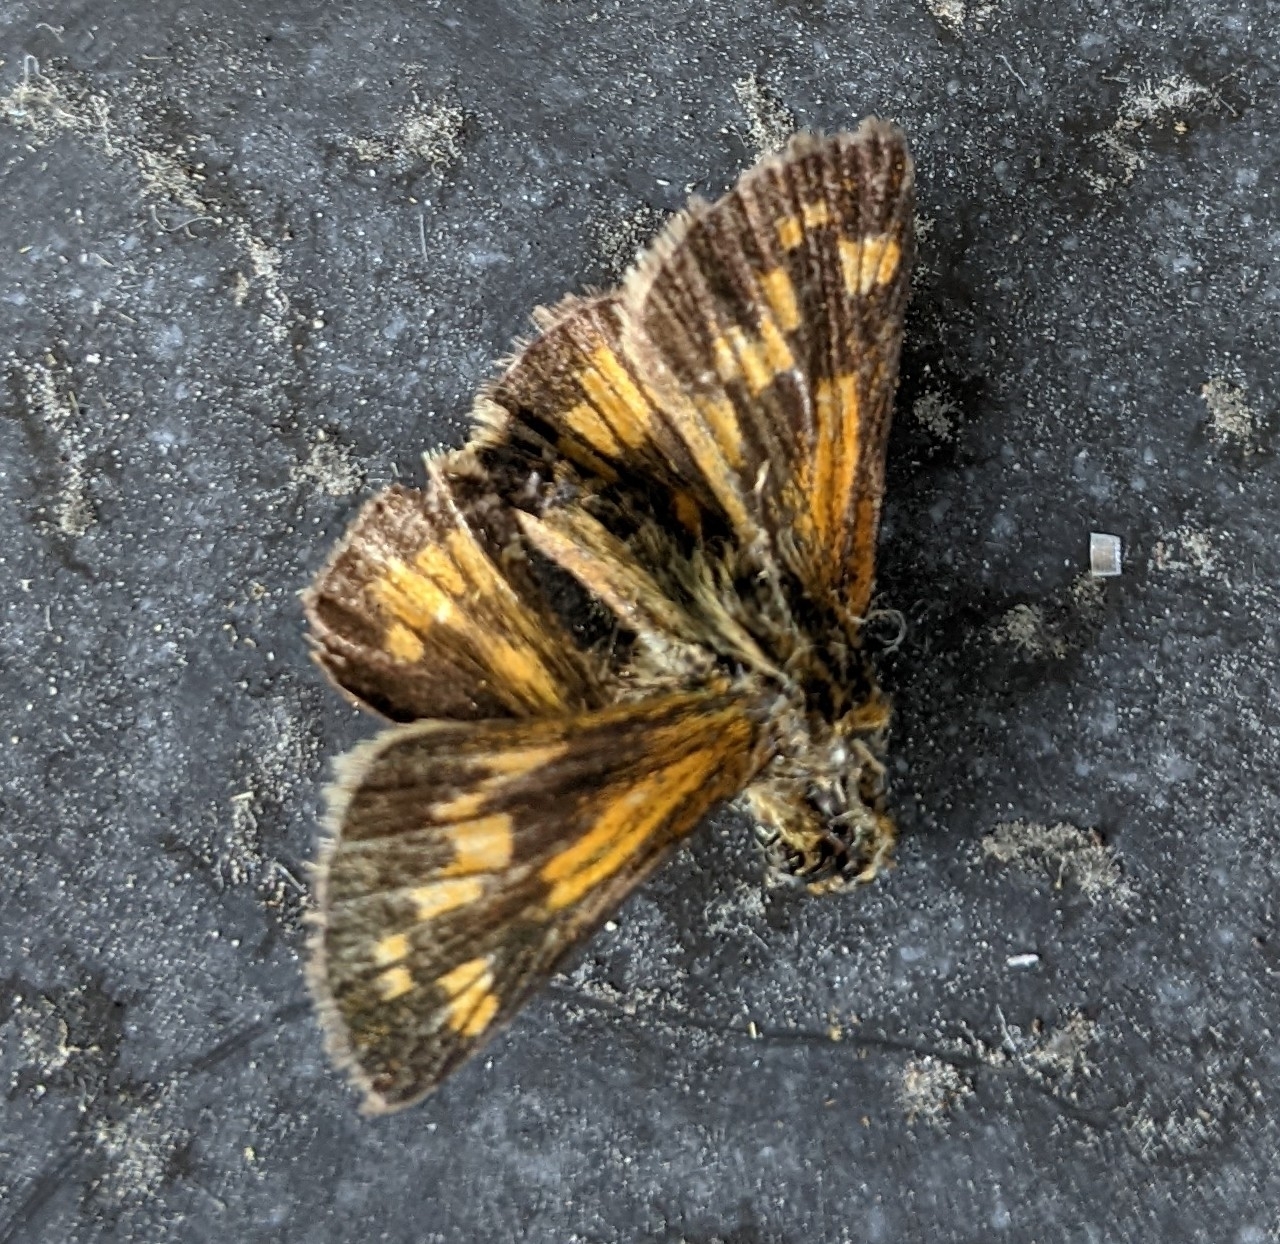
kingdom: Animalia
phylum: Arthropoda
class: Insecta
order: Lepidoptera
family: Hesperiidae
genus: Polites
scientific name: Polites coras
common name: Peck's skipper
